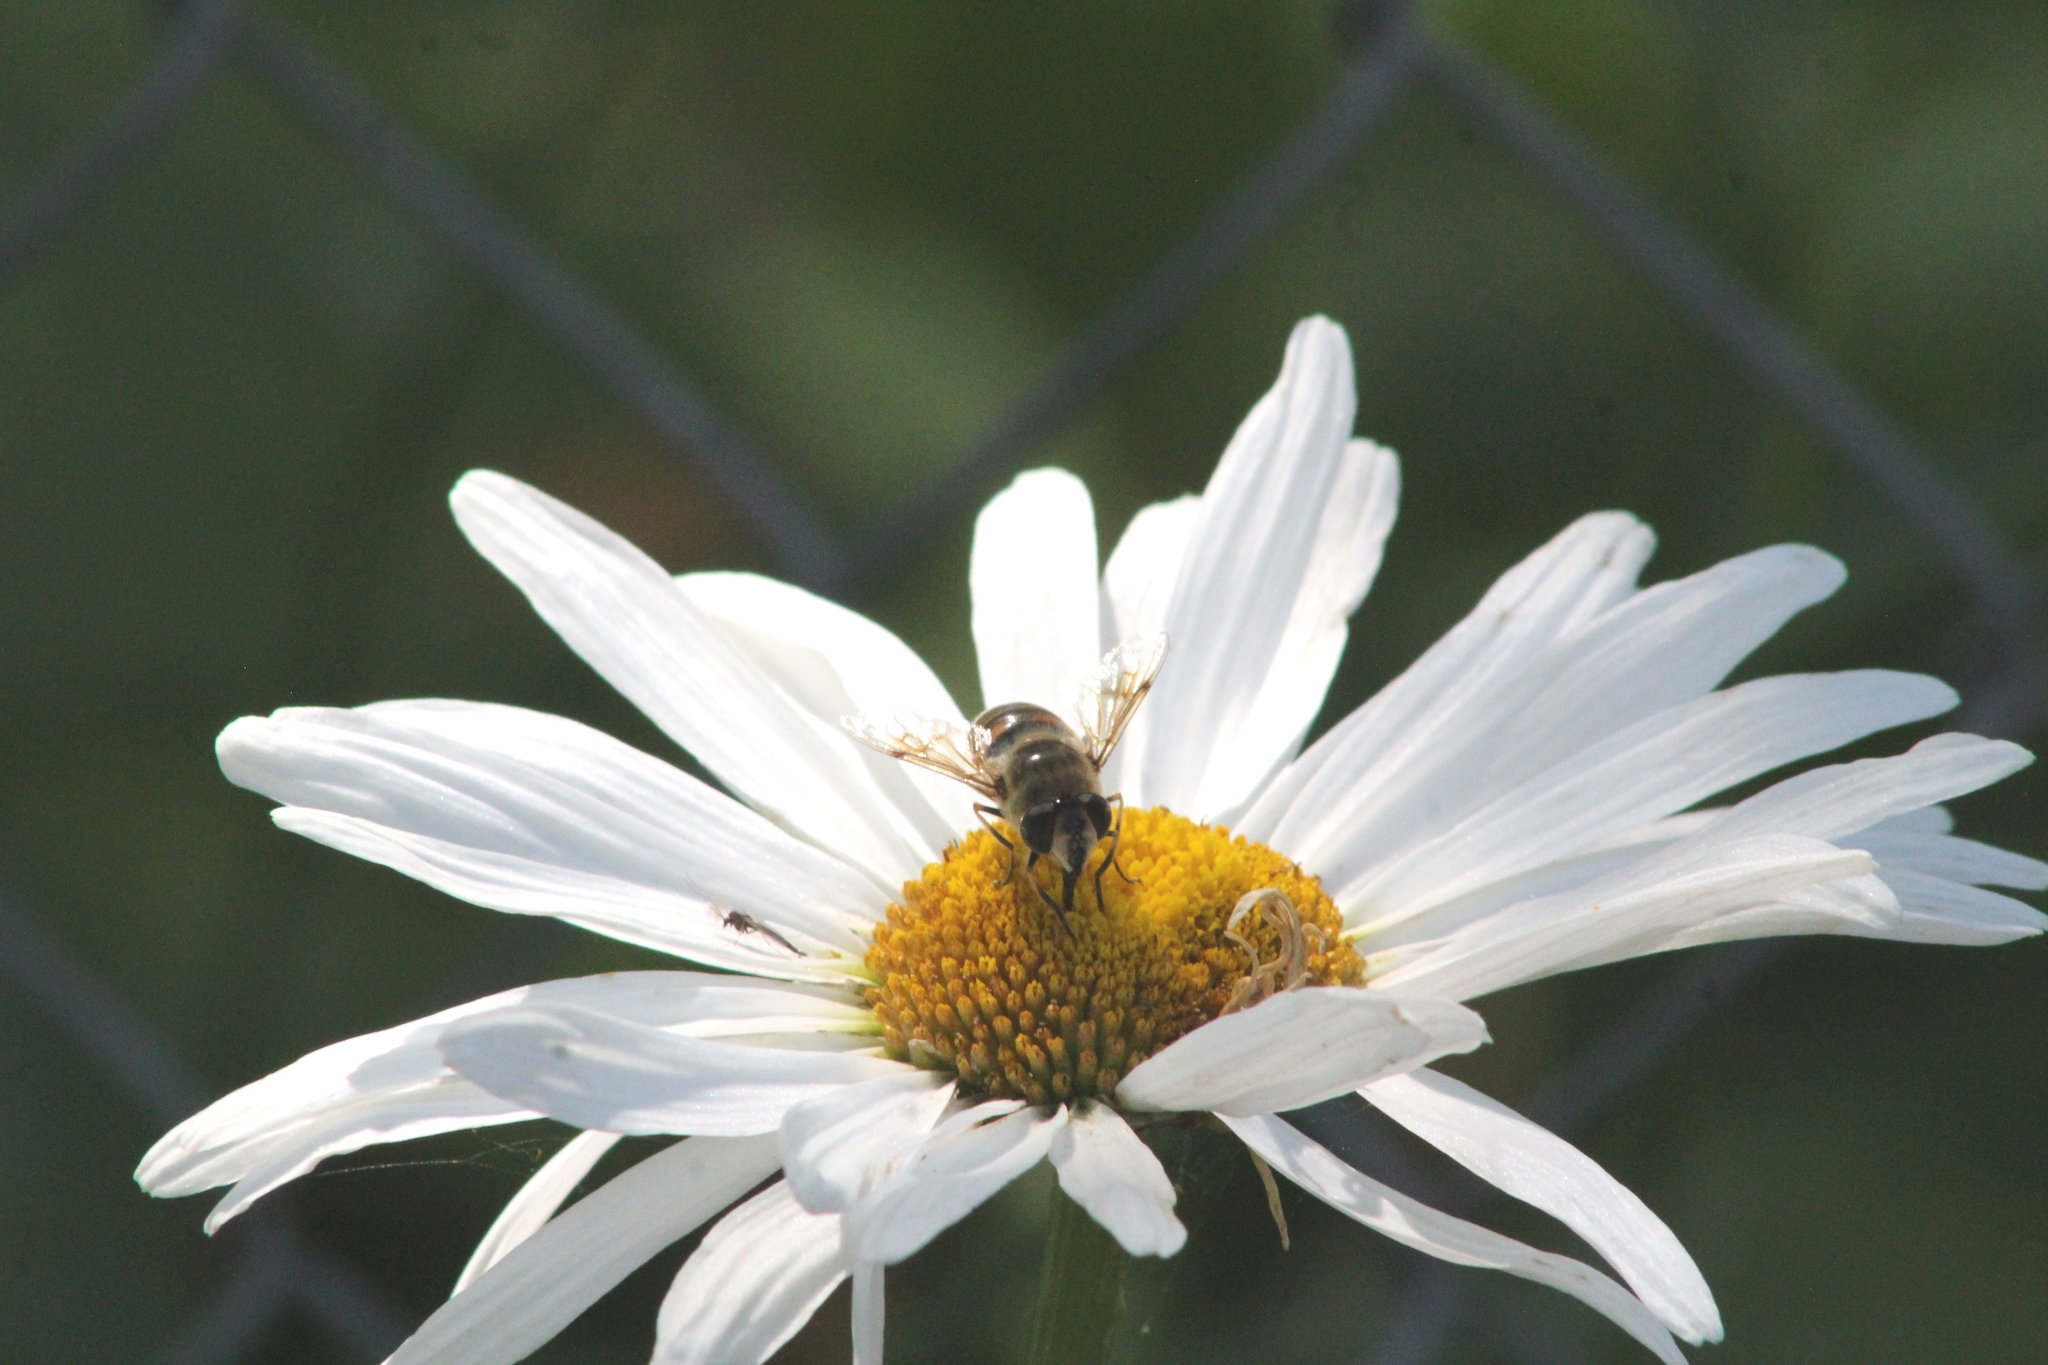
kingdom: Animalia
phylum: Arthropoda
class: Insecta
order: Diptera
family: Syrphidae
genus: Eristalis
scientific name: Eristalis tenax
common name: Drone fly
